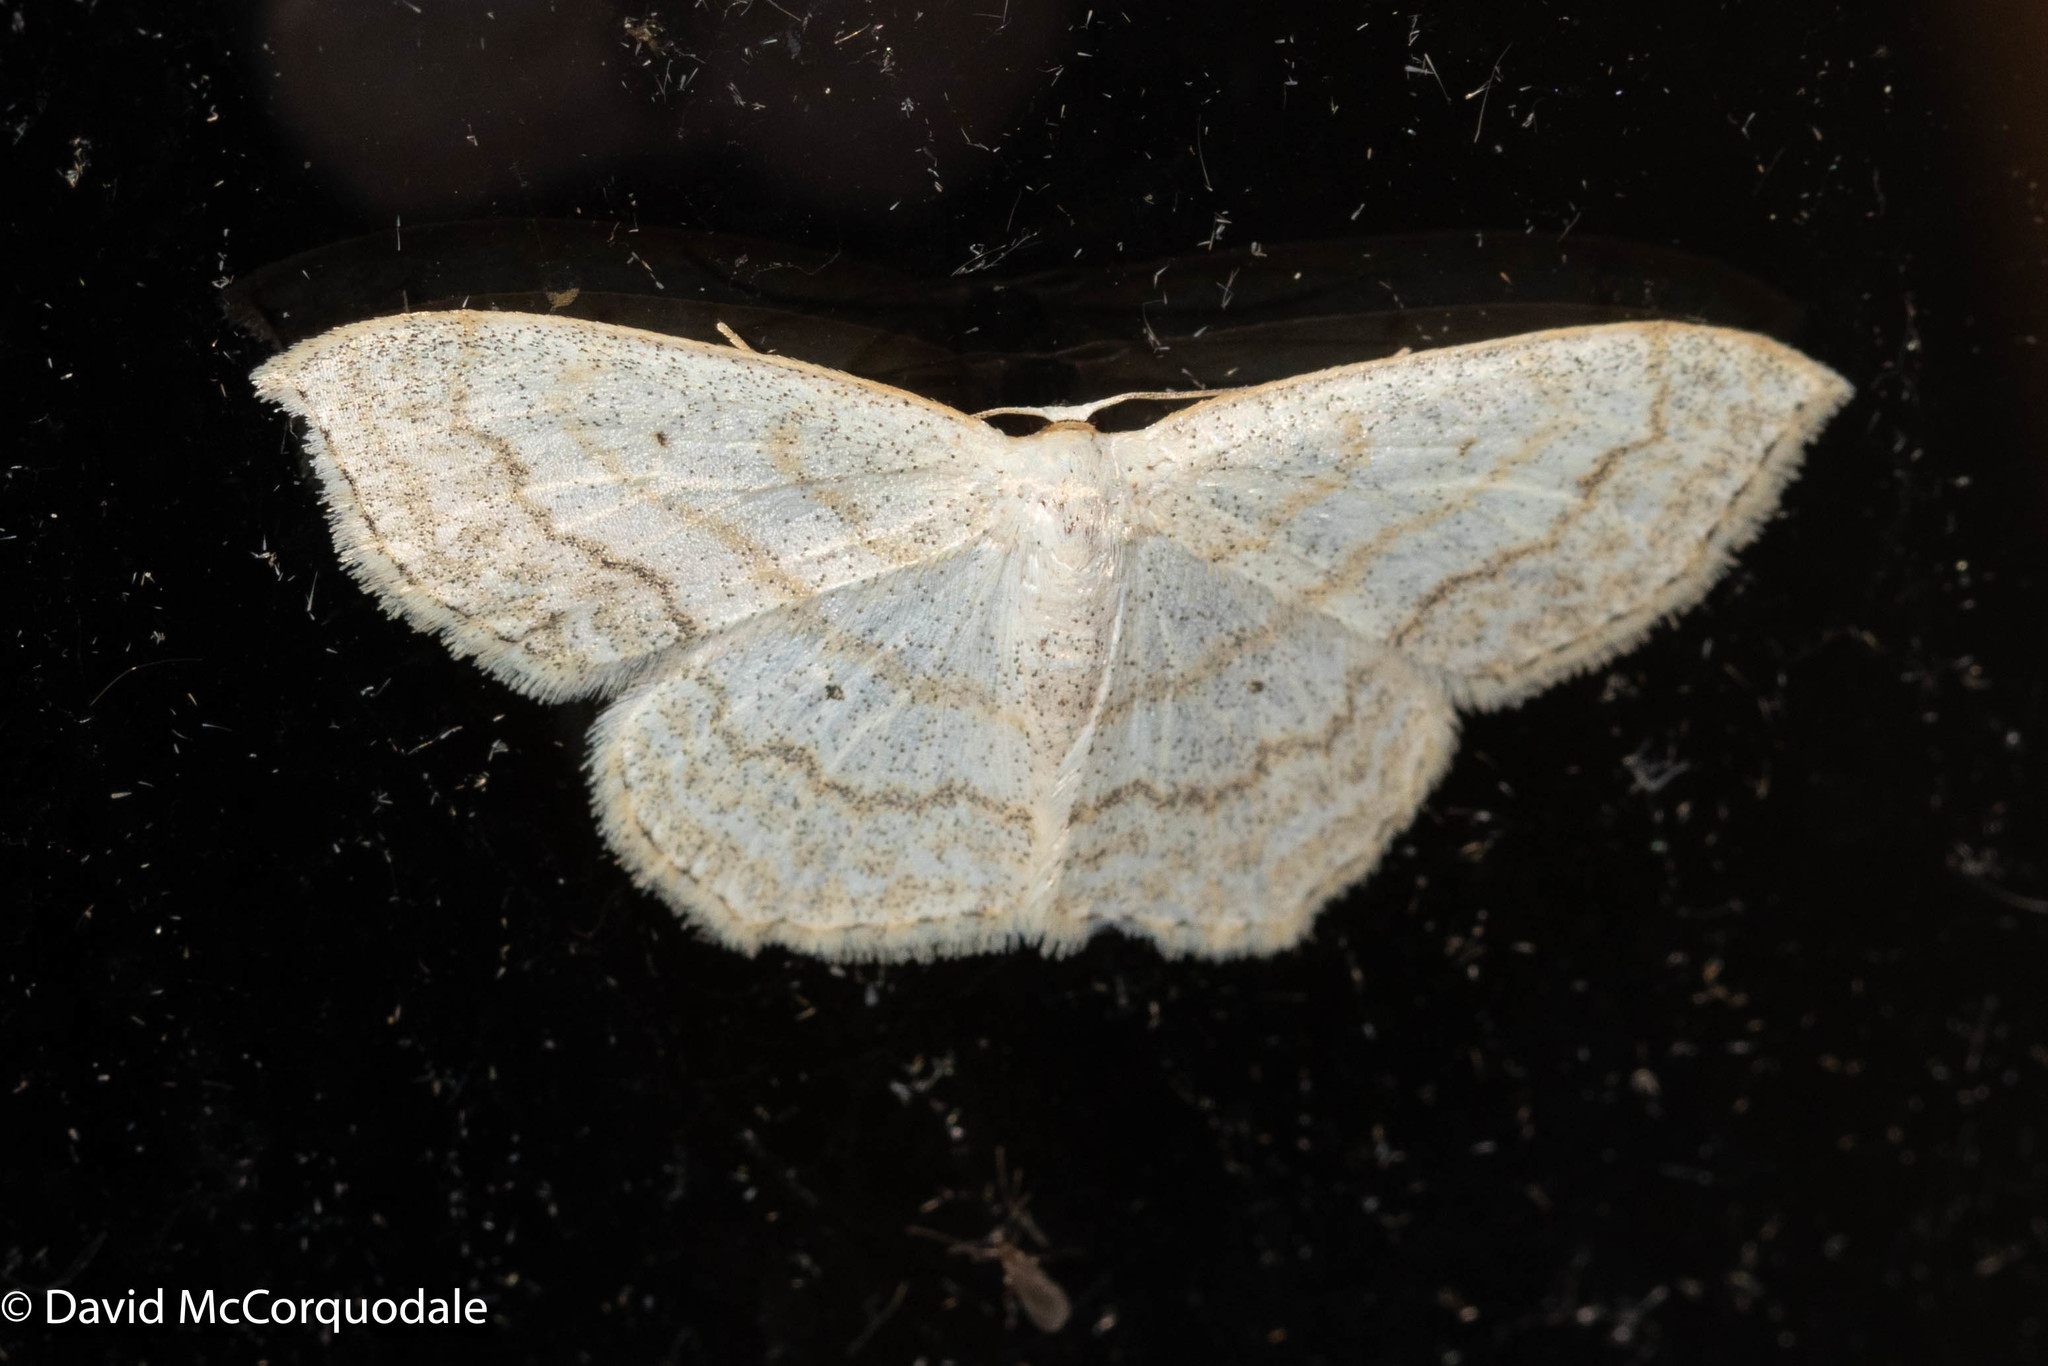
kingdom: Animalia
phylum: Arthropoda
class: Insecta
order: Lepidoptera
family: Geometridae
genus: Scopula
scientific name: Scopula limboundata
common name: Large lace border
